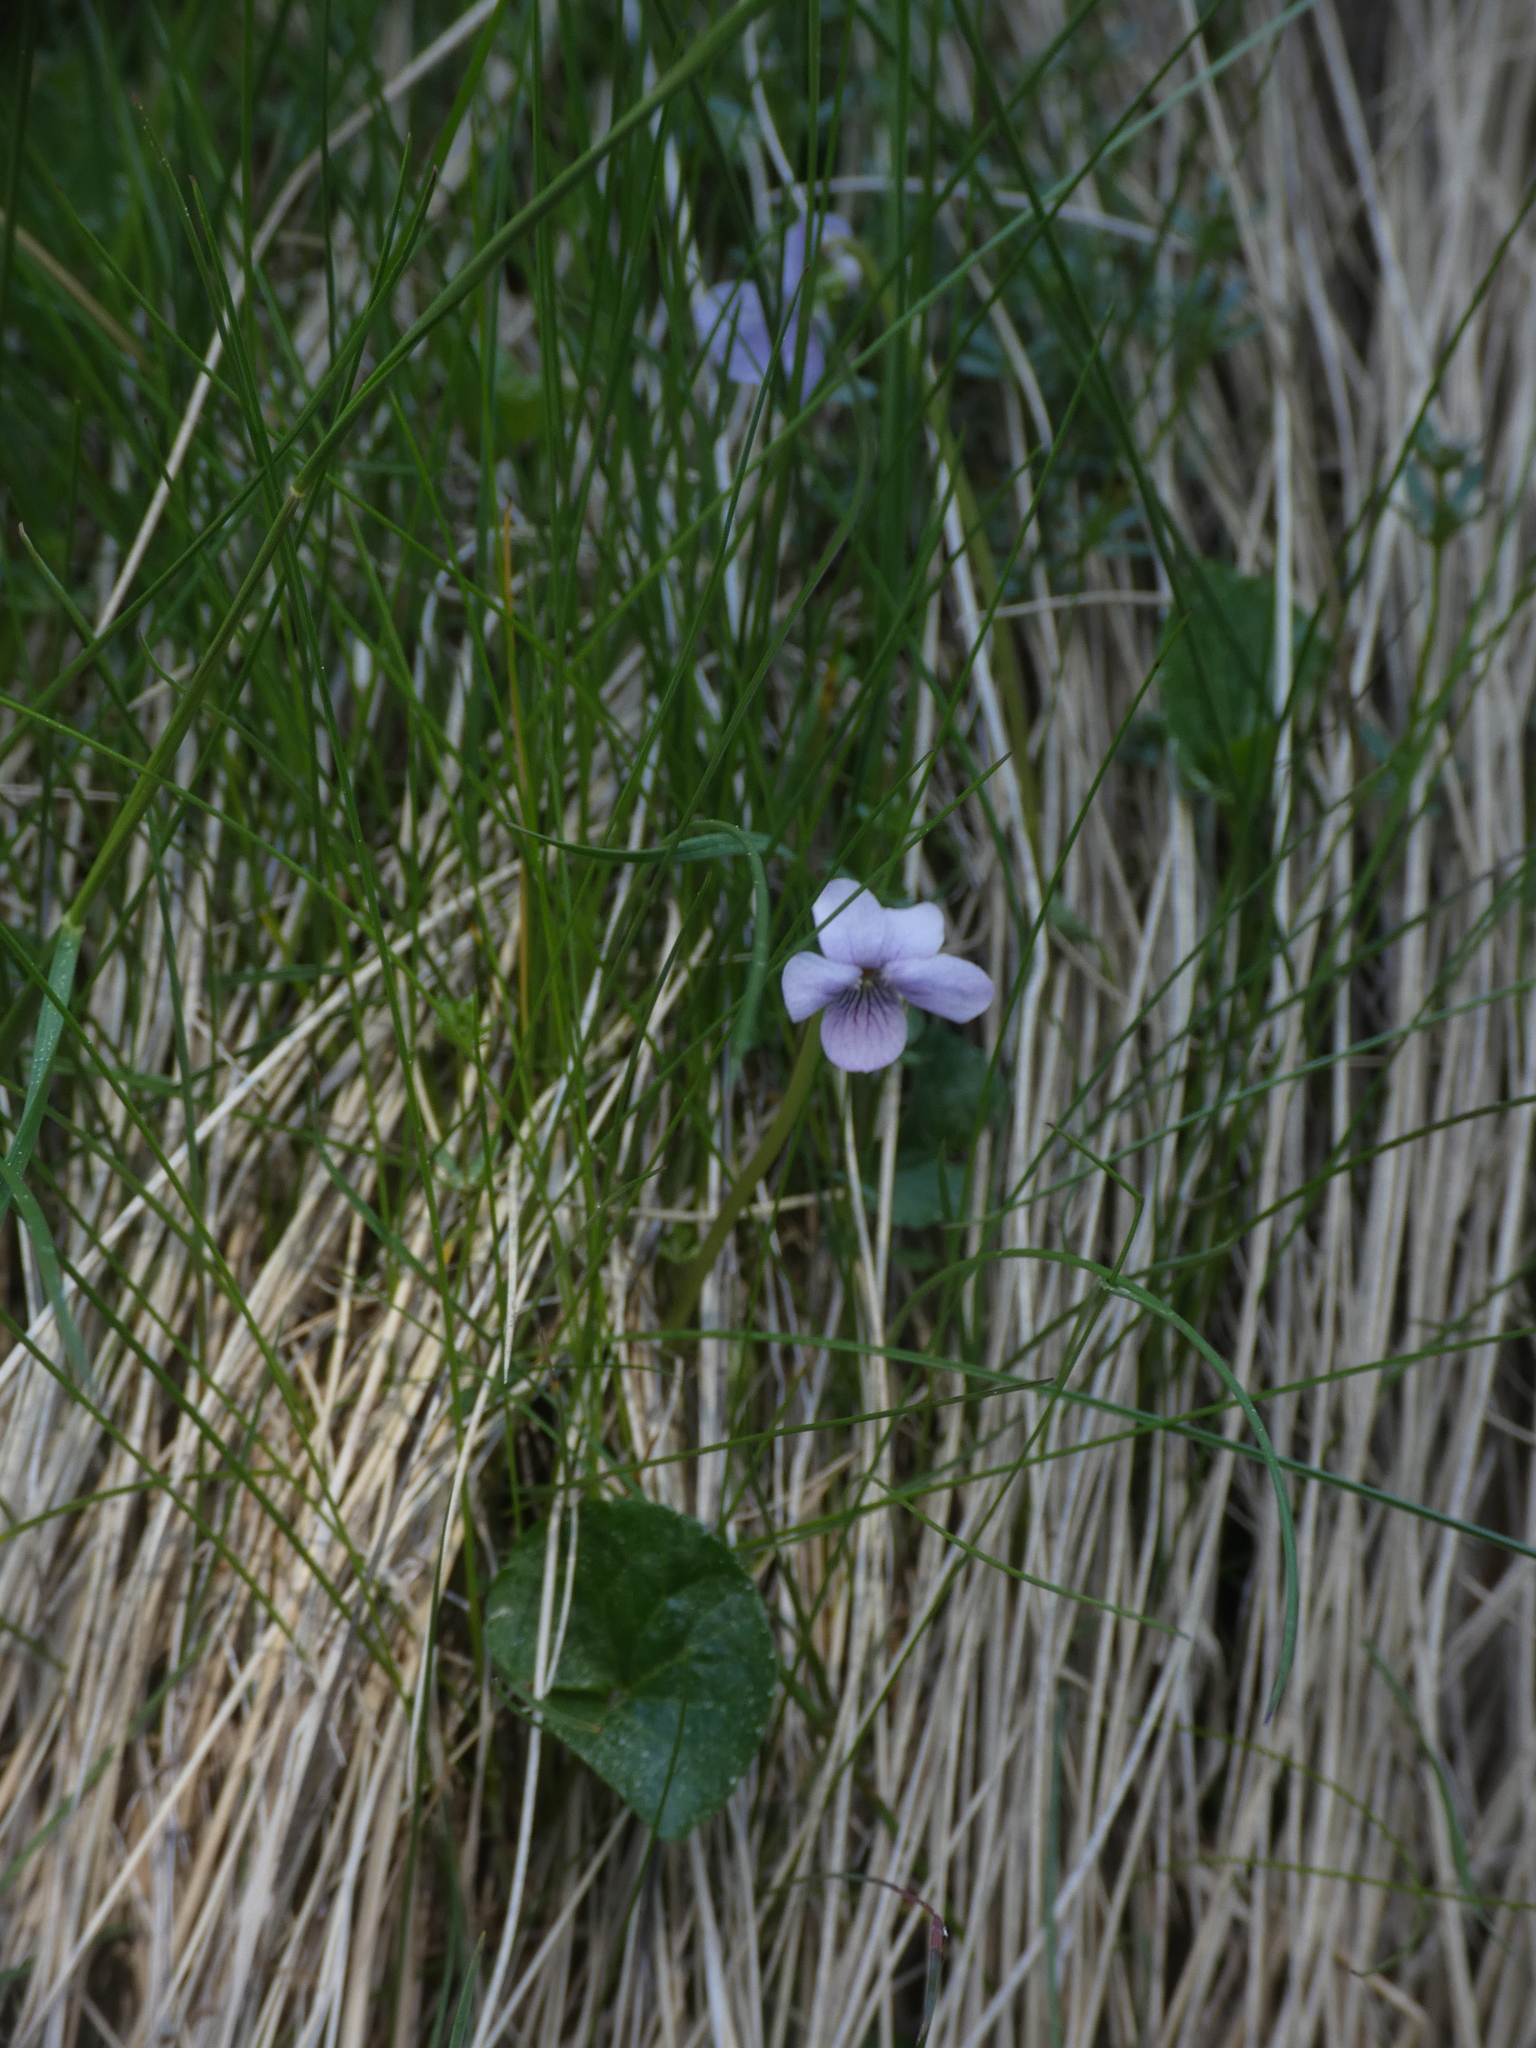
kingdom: Plantae
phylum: Tracheophyta
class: Magnoliopsida
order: Malpighiales
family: Violaceae
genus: Viola
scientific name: Viola palustris
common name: Marsh violet
